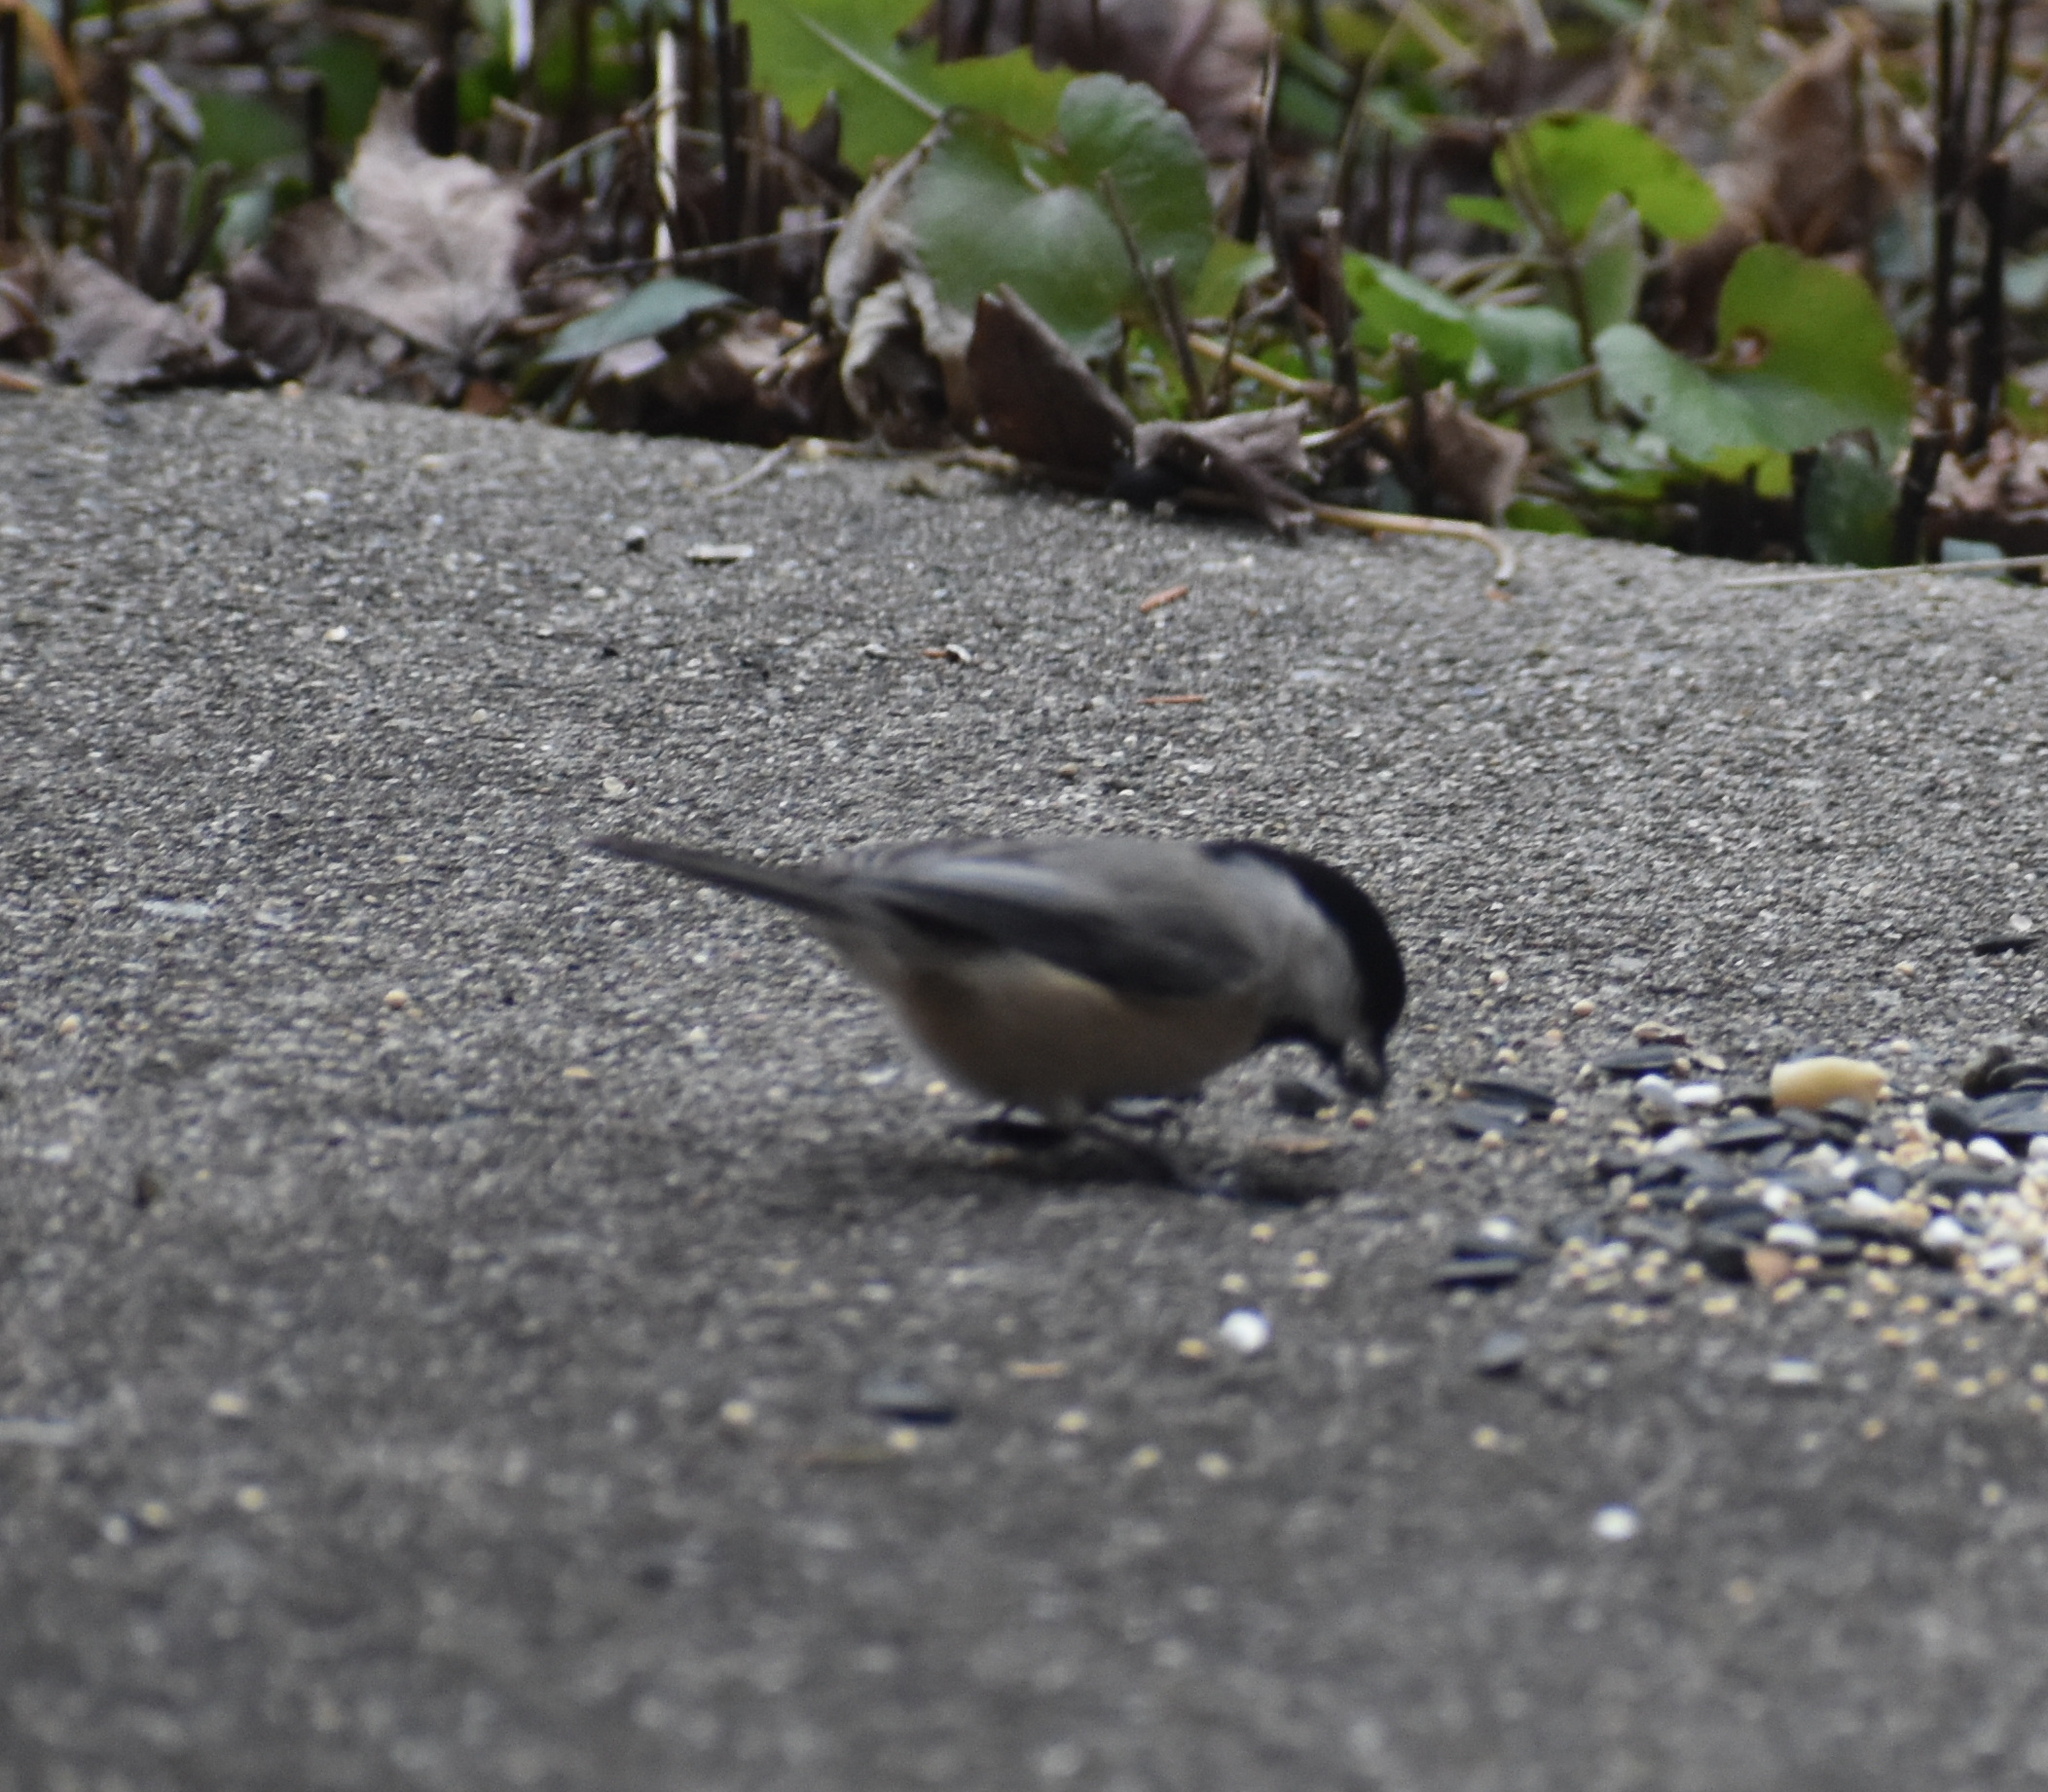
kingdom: Animalia
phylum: Chordata
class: Aves
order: Passeriformes
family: Paridae
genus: Poecile
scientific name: Poecile carolinensis
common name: Carolina chickadee
